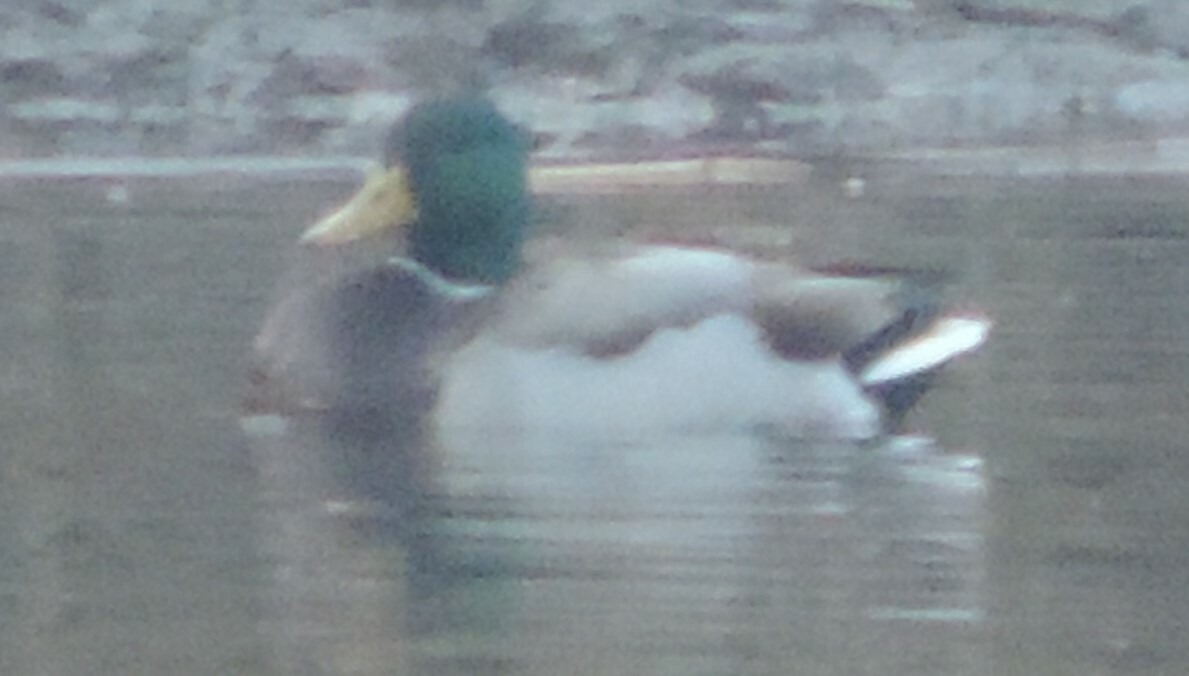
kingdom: Animalia
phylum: Chordata
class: Aves
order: Anseriformes
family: Anatidae
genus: Anas
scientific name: Anas platyrhynchos
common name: Mallard
